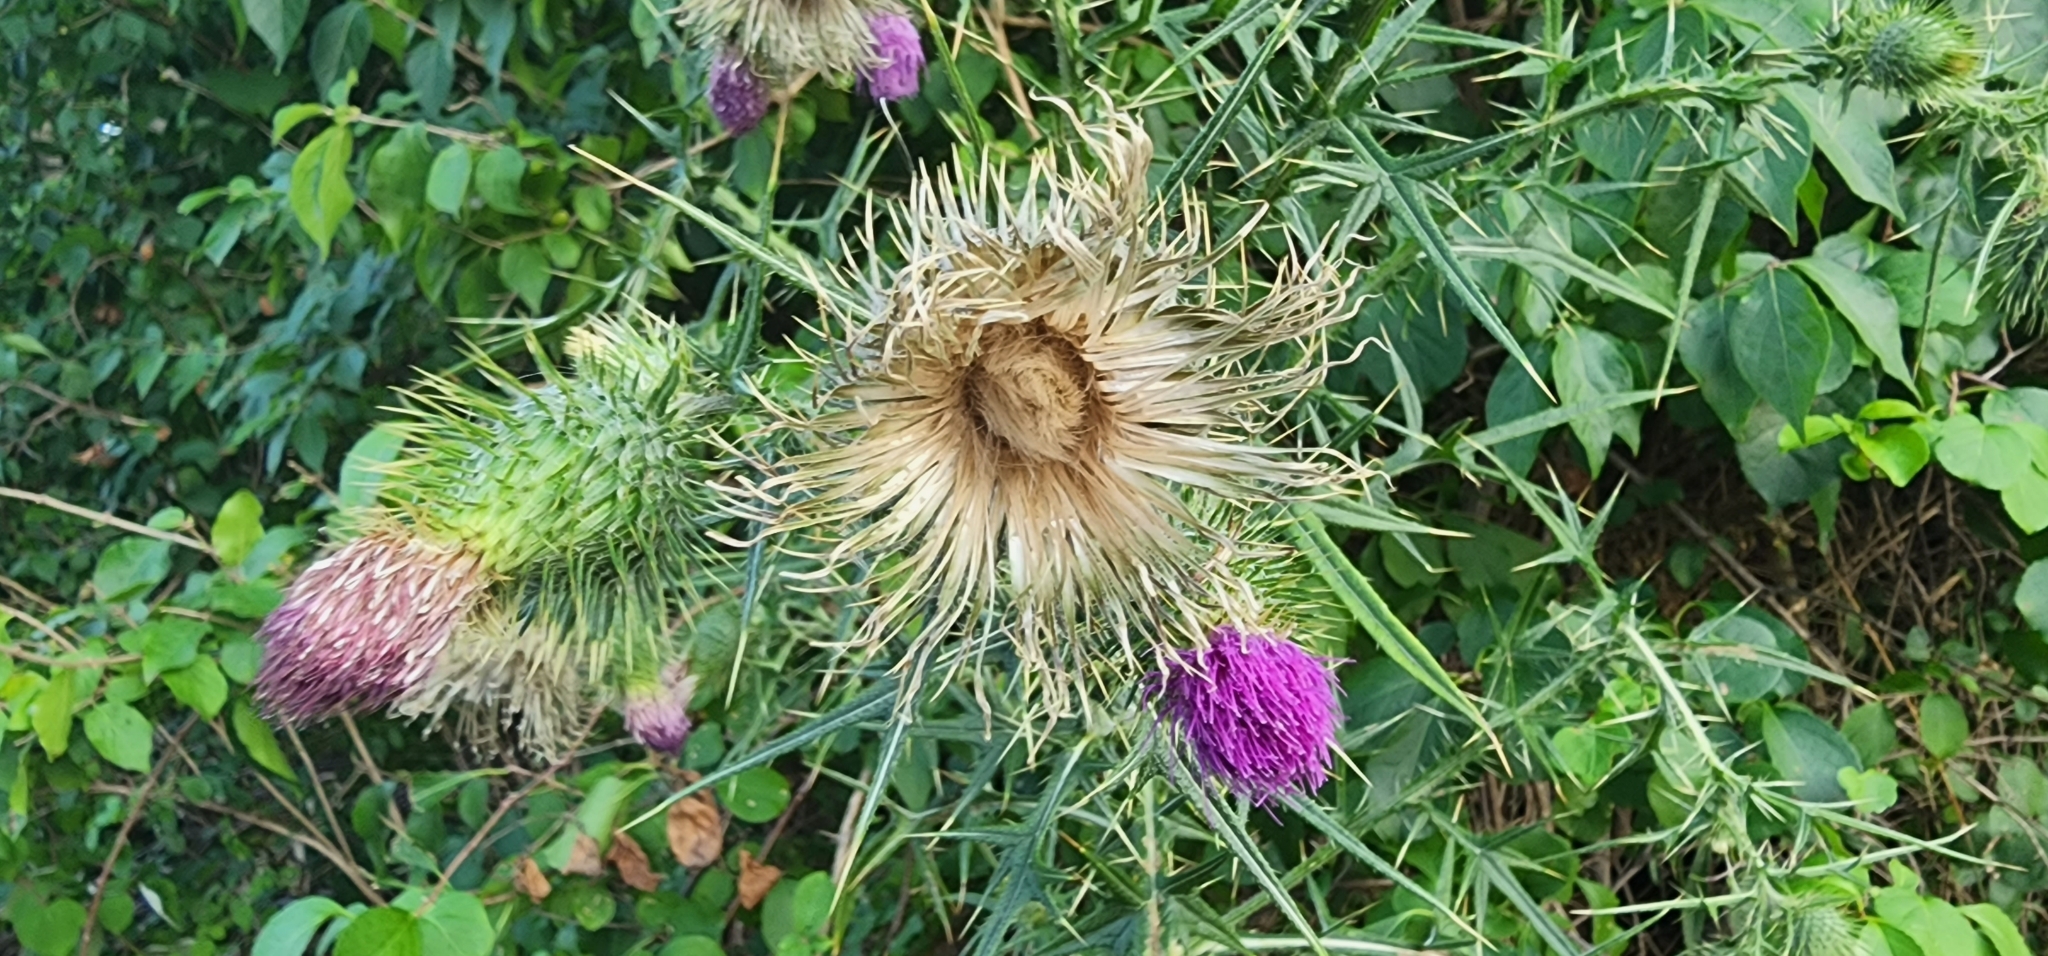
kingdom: Plantae
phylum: Tracheophyta
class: Magnoliopsida
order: Asterales
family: Asteraceae
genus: Cirsium
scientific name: Cirsium vulgare
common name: Bull thistle
